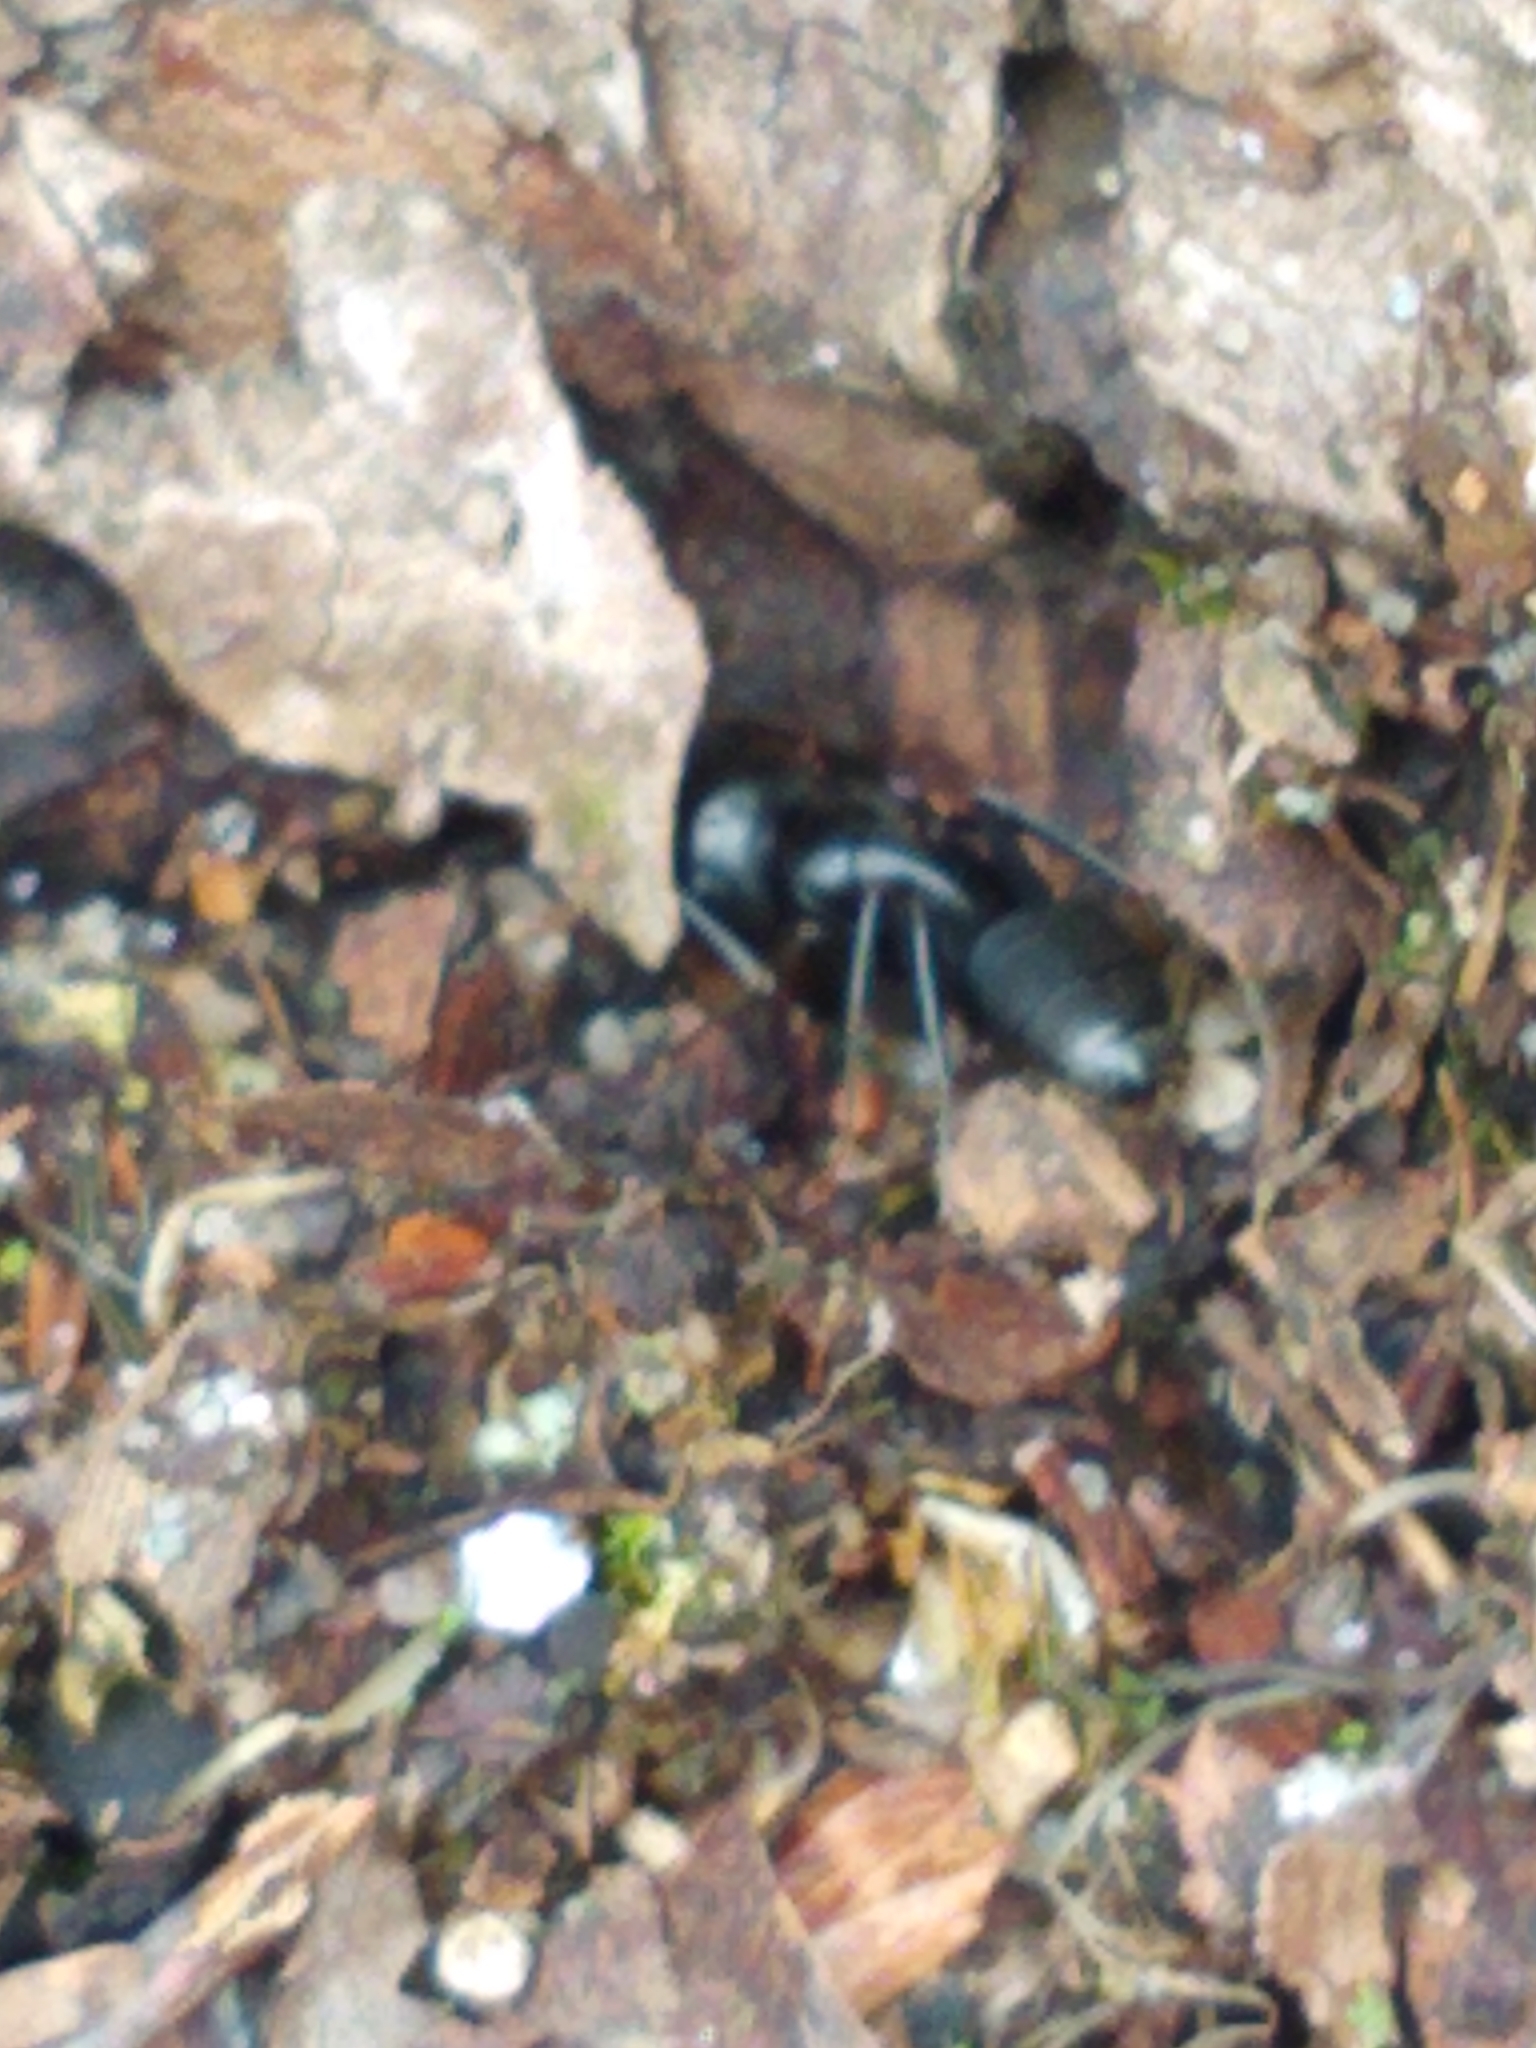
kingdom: Animalia
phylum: Arthropoda
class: Insecta
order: Hymenoptera
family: Formicidae
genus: Camponotus
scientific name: Camponotus pennsylvanicus
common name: Black carpenter ant
